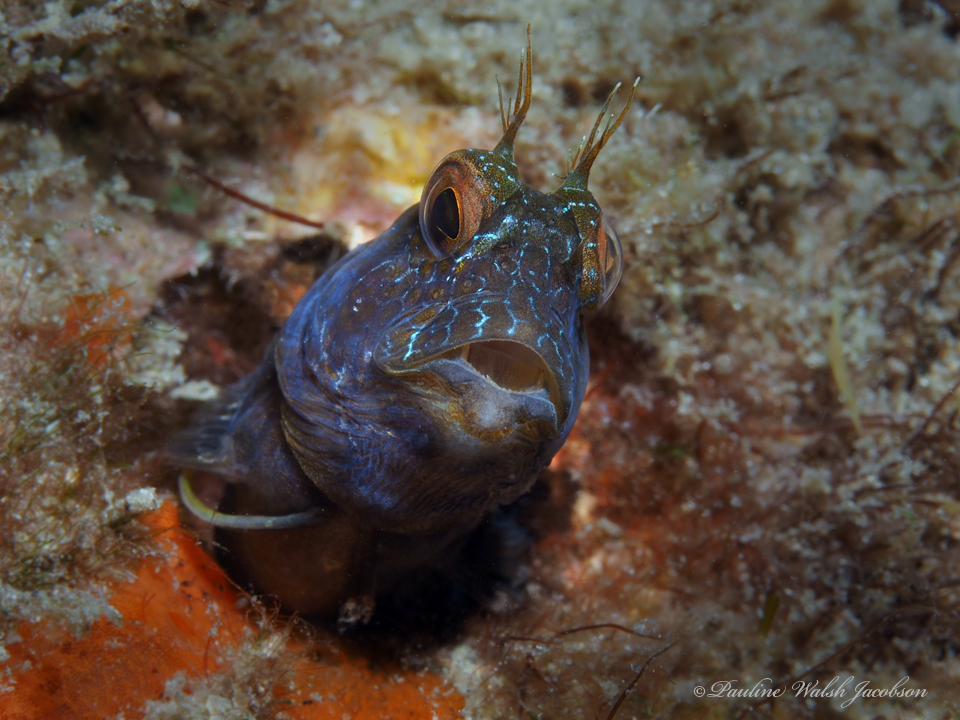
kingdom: Animalia
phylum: Chordata
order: Perciformes
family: Blenniidae
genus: Parablennius
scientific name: Parablennius marmoreus
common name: Seaweed blenny
